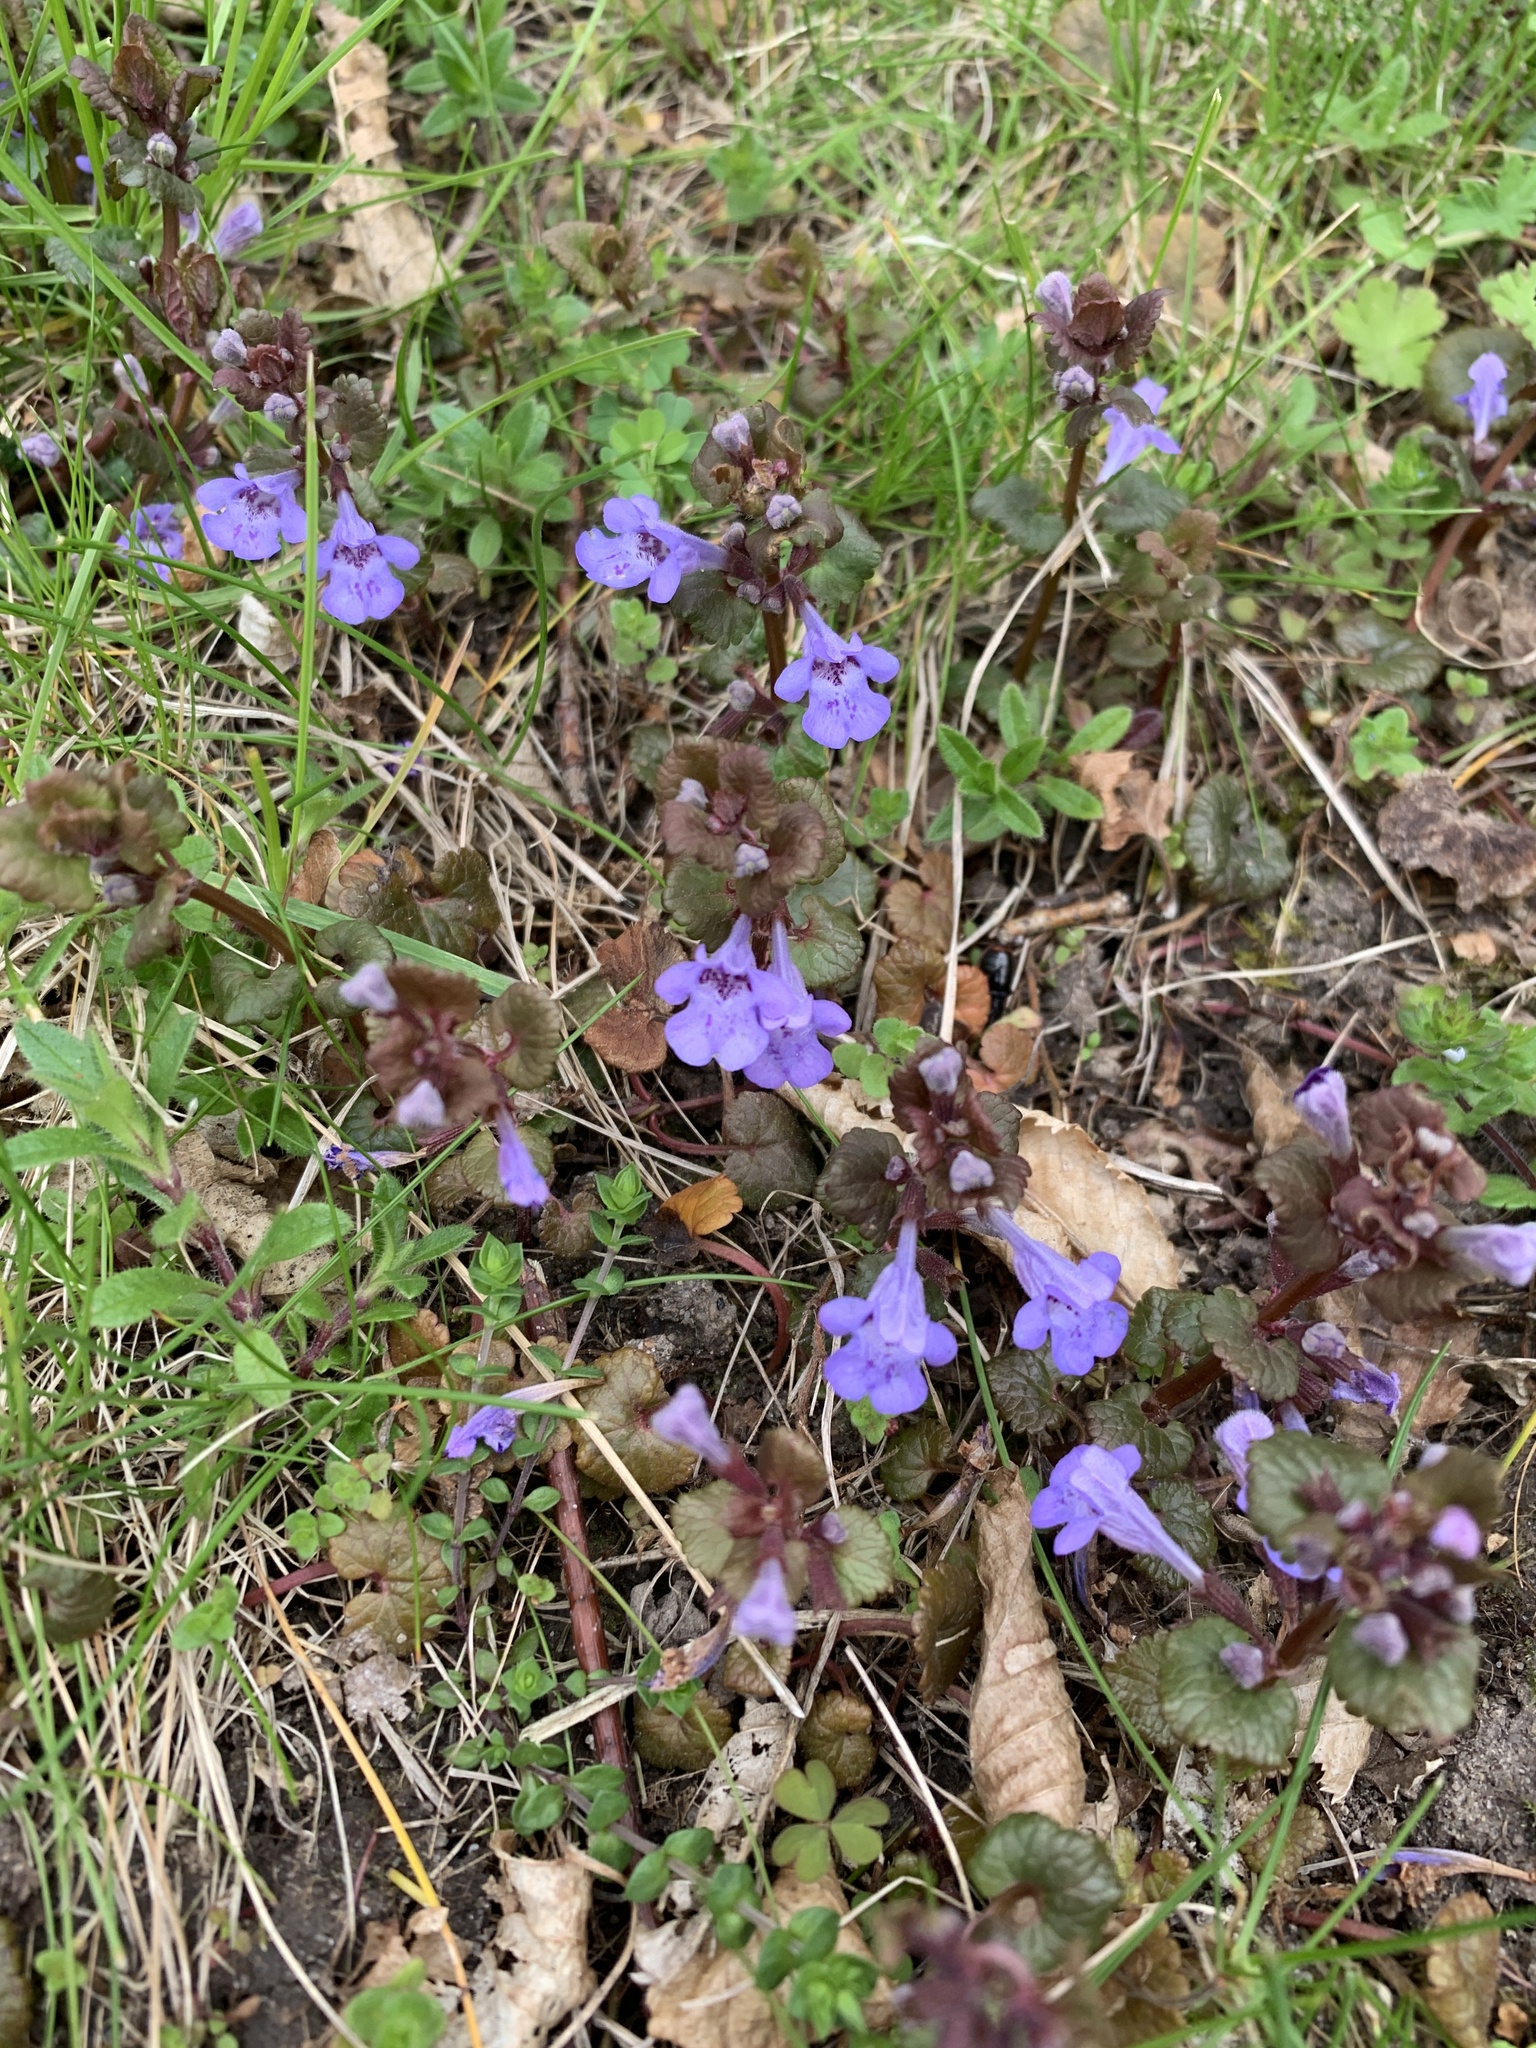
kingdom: Plantae
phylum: Tracheophyta
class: Magnoliopsida
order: Lamiales
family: Lamiaceae
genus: Glechoma
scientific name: Glechoma hederacea
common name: Ground ivy
